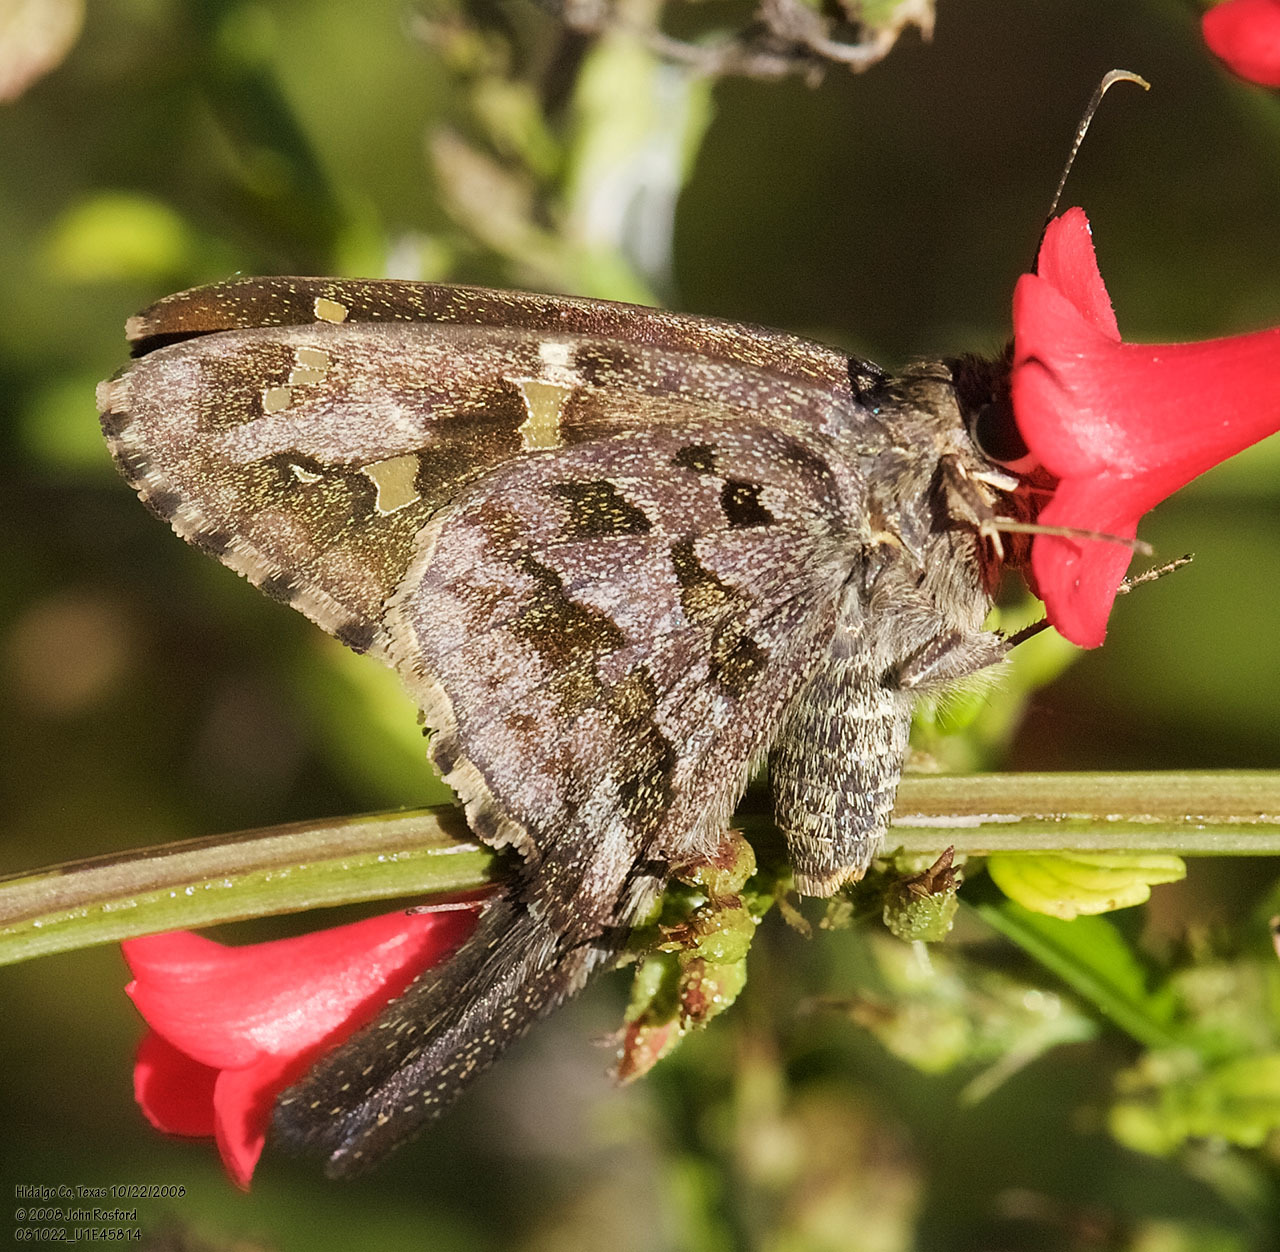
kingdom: Animalia
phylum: Arthropoda
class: Insecta
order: Lepidoptera
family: Hesperiidae
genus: Thorybes
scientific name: Thorybes
